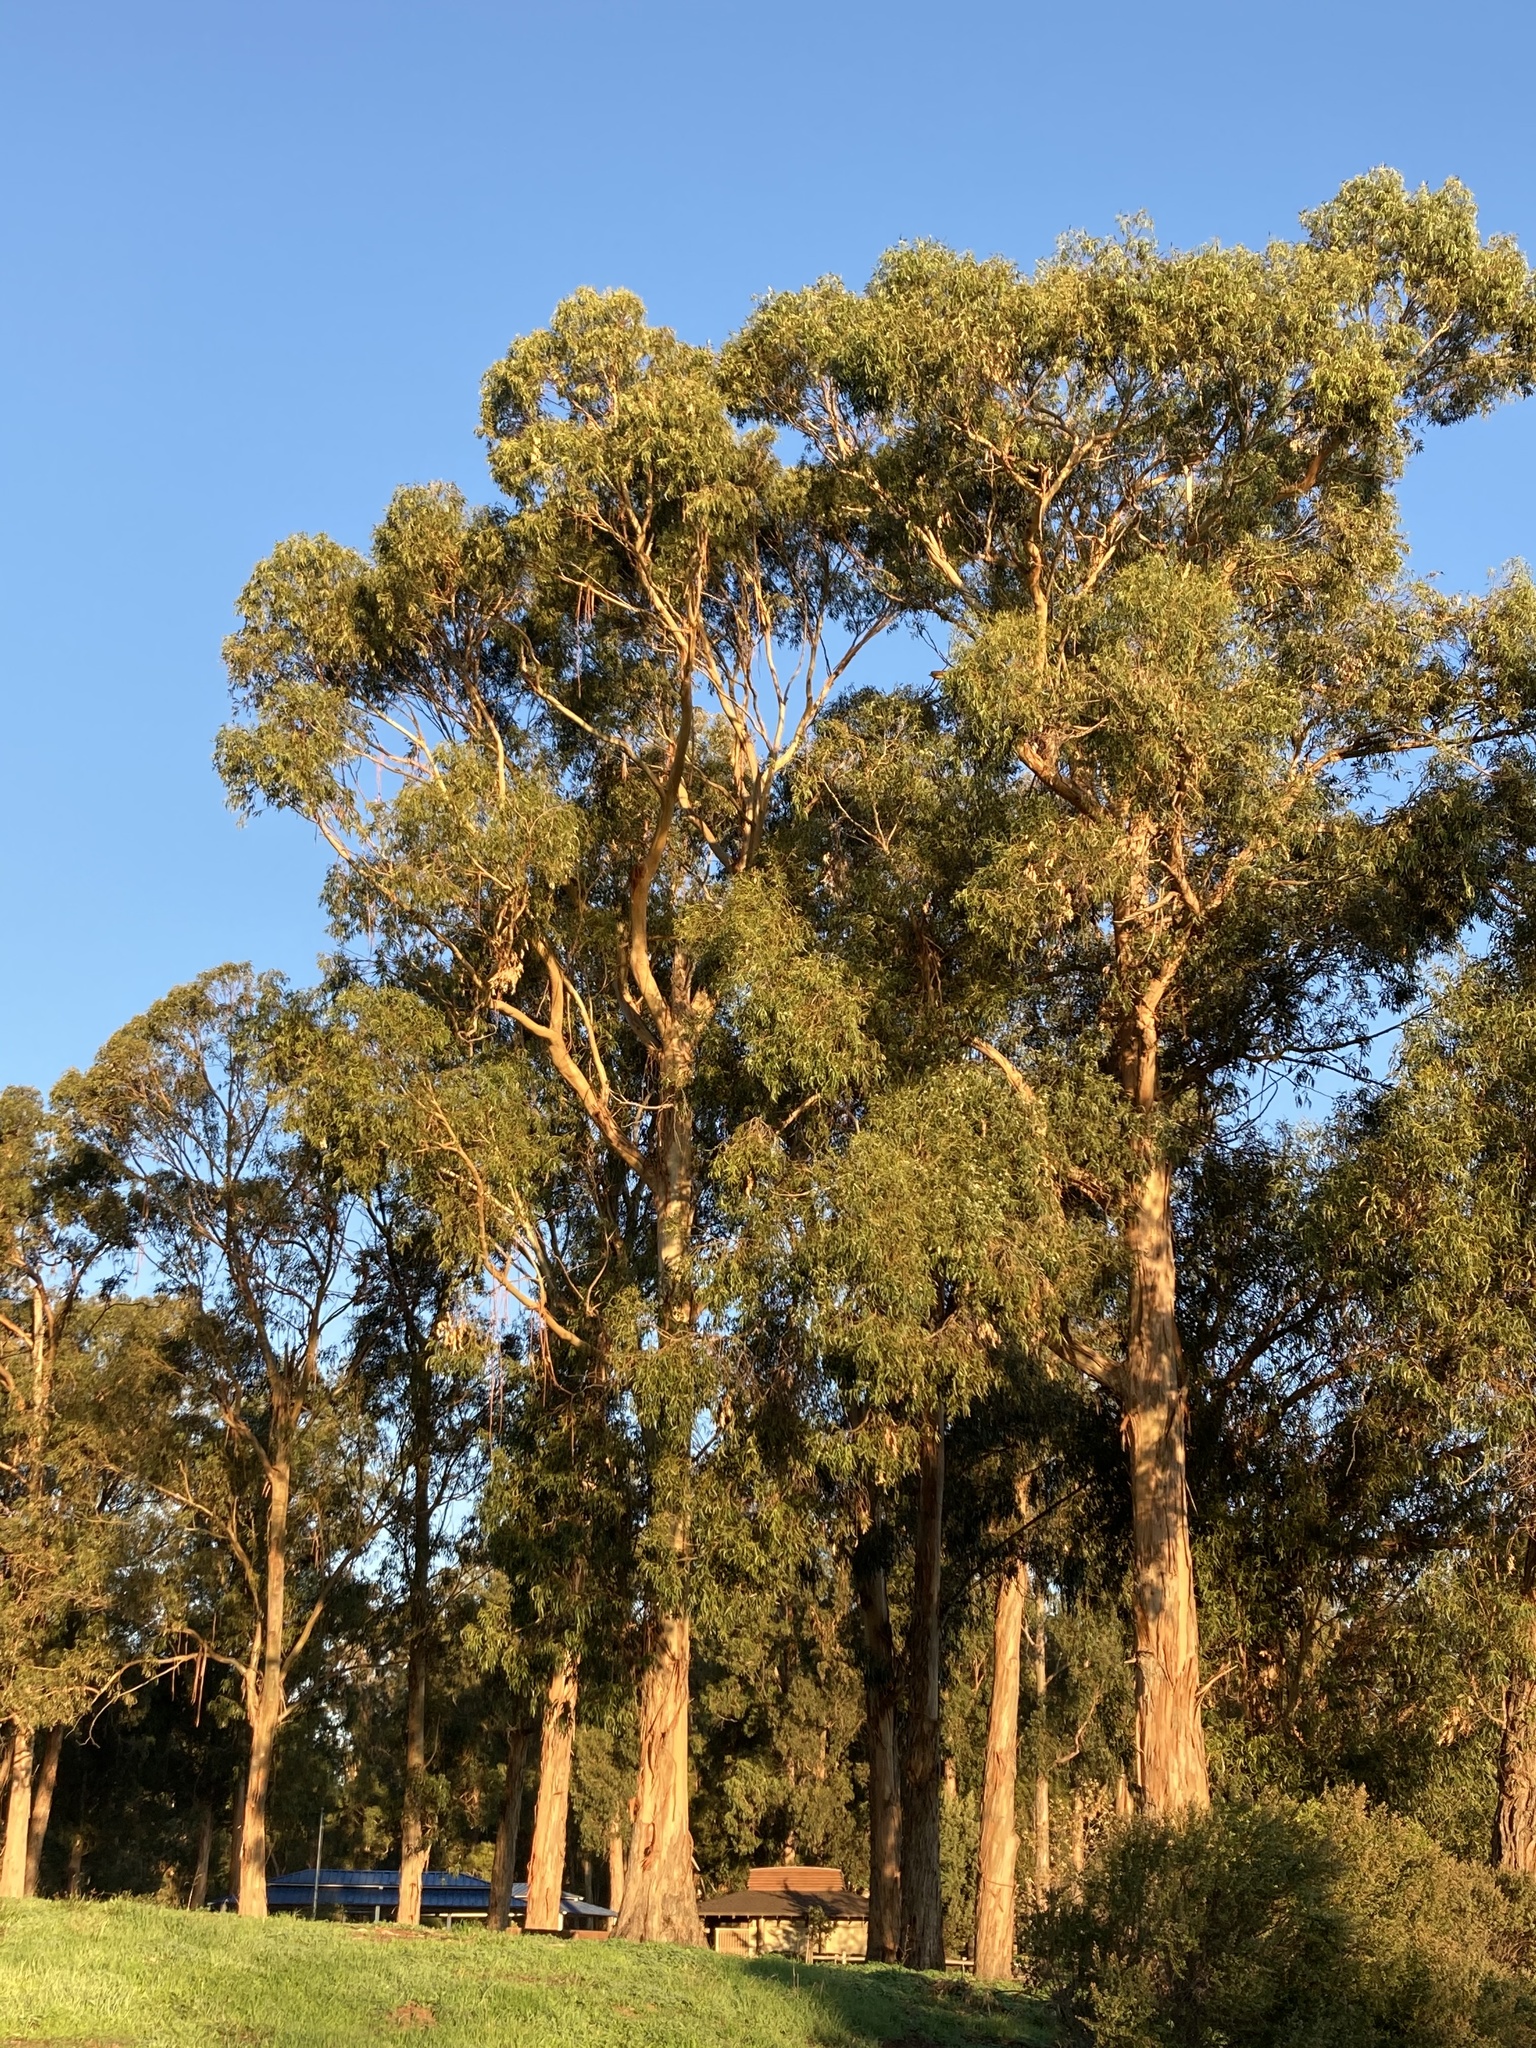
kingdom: Plantae
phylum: Tracheophyta
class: Magnoliopsida
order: Myrtales
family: Myrtaceae
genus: Eucalyptus
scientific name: Eucalyptus globulus
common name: Southern blue-gum
